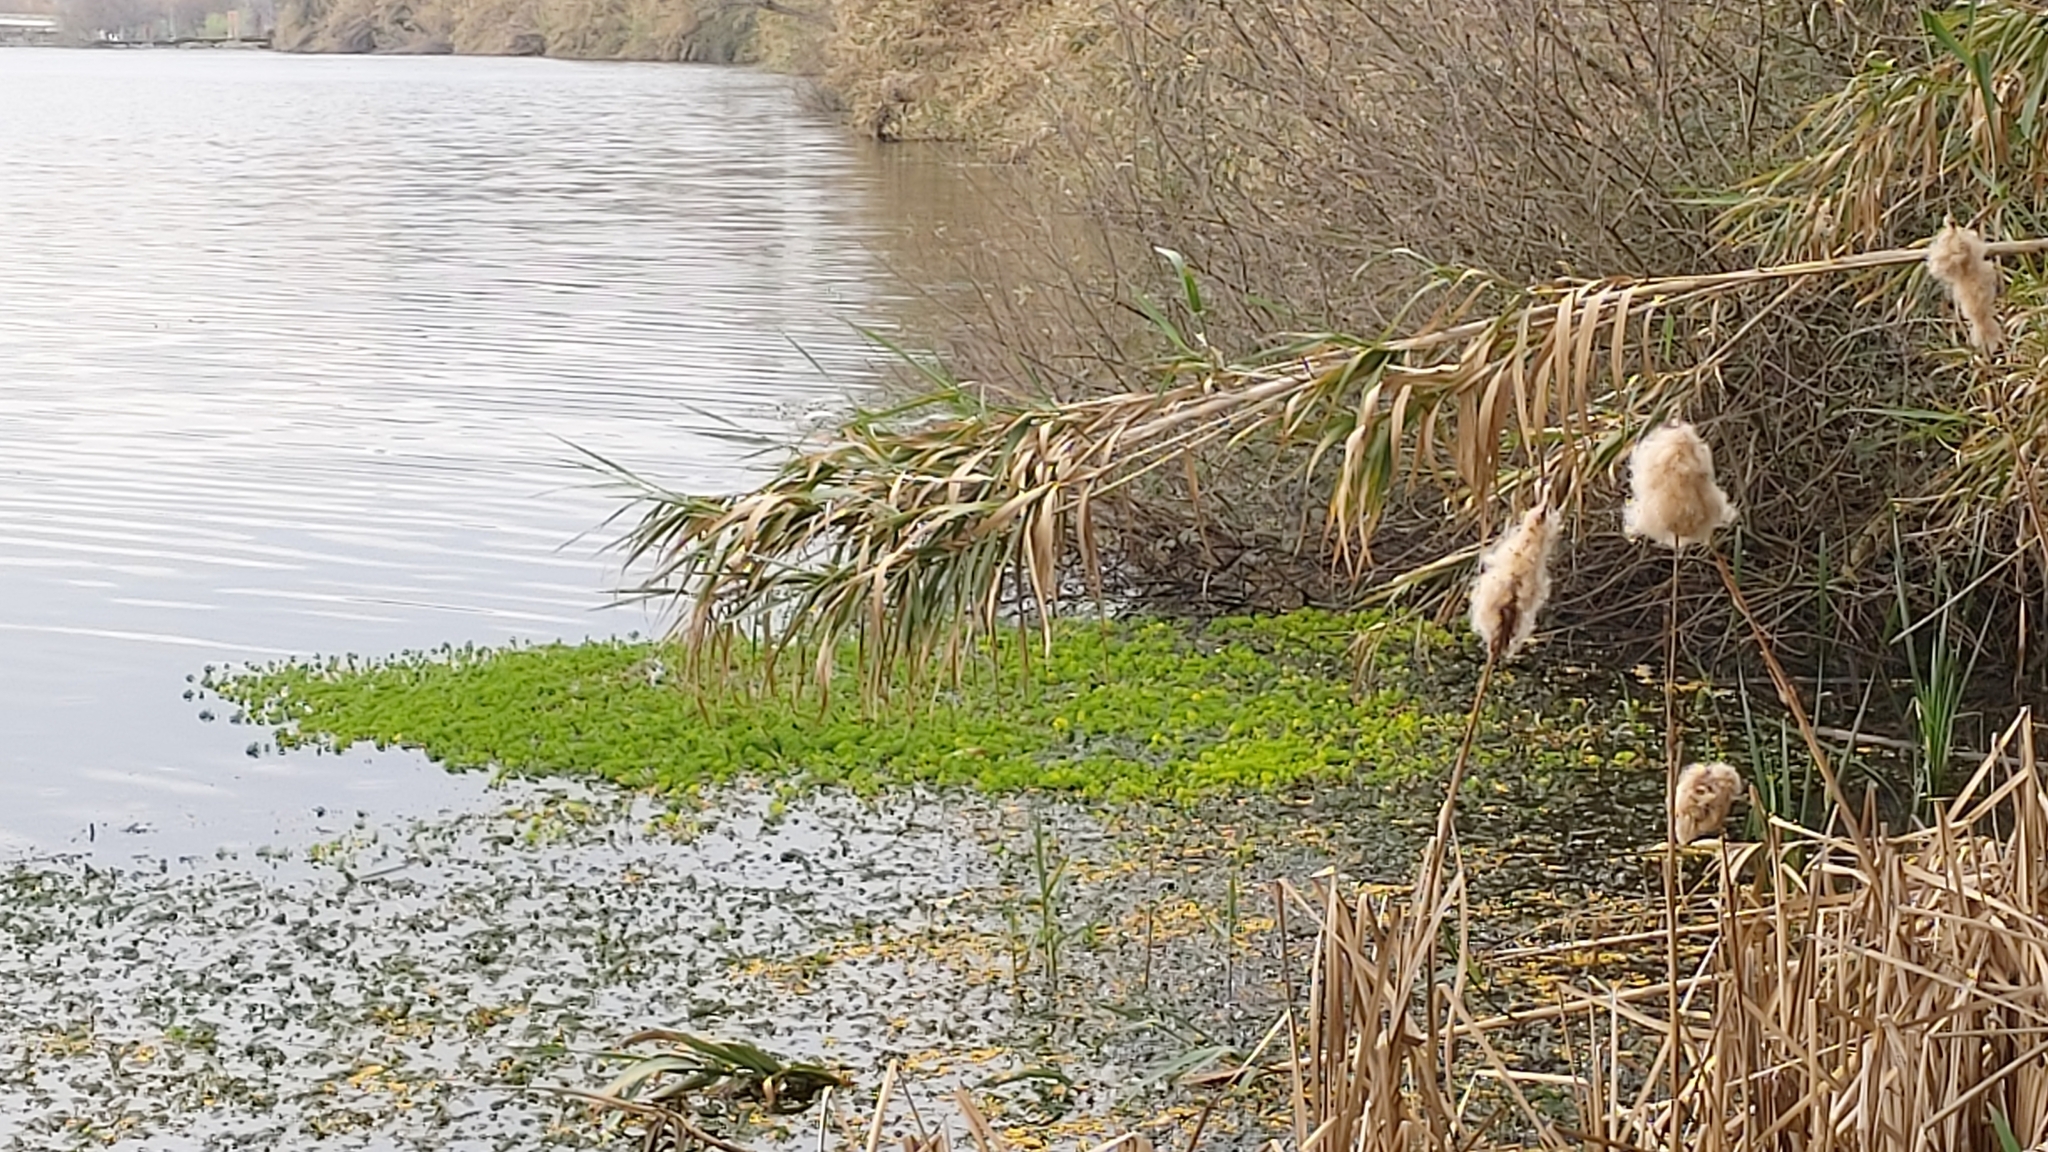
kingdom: Plantae
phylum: Tracheophyta
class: Magnoliopsida
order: Saxifragales
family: Haloragaceae
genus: Myriophyllum
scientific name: Myriophyllum aquaticum
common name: Parrot's feather
